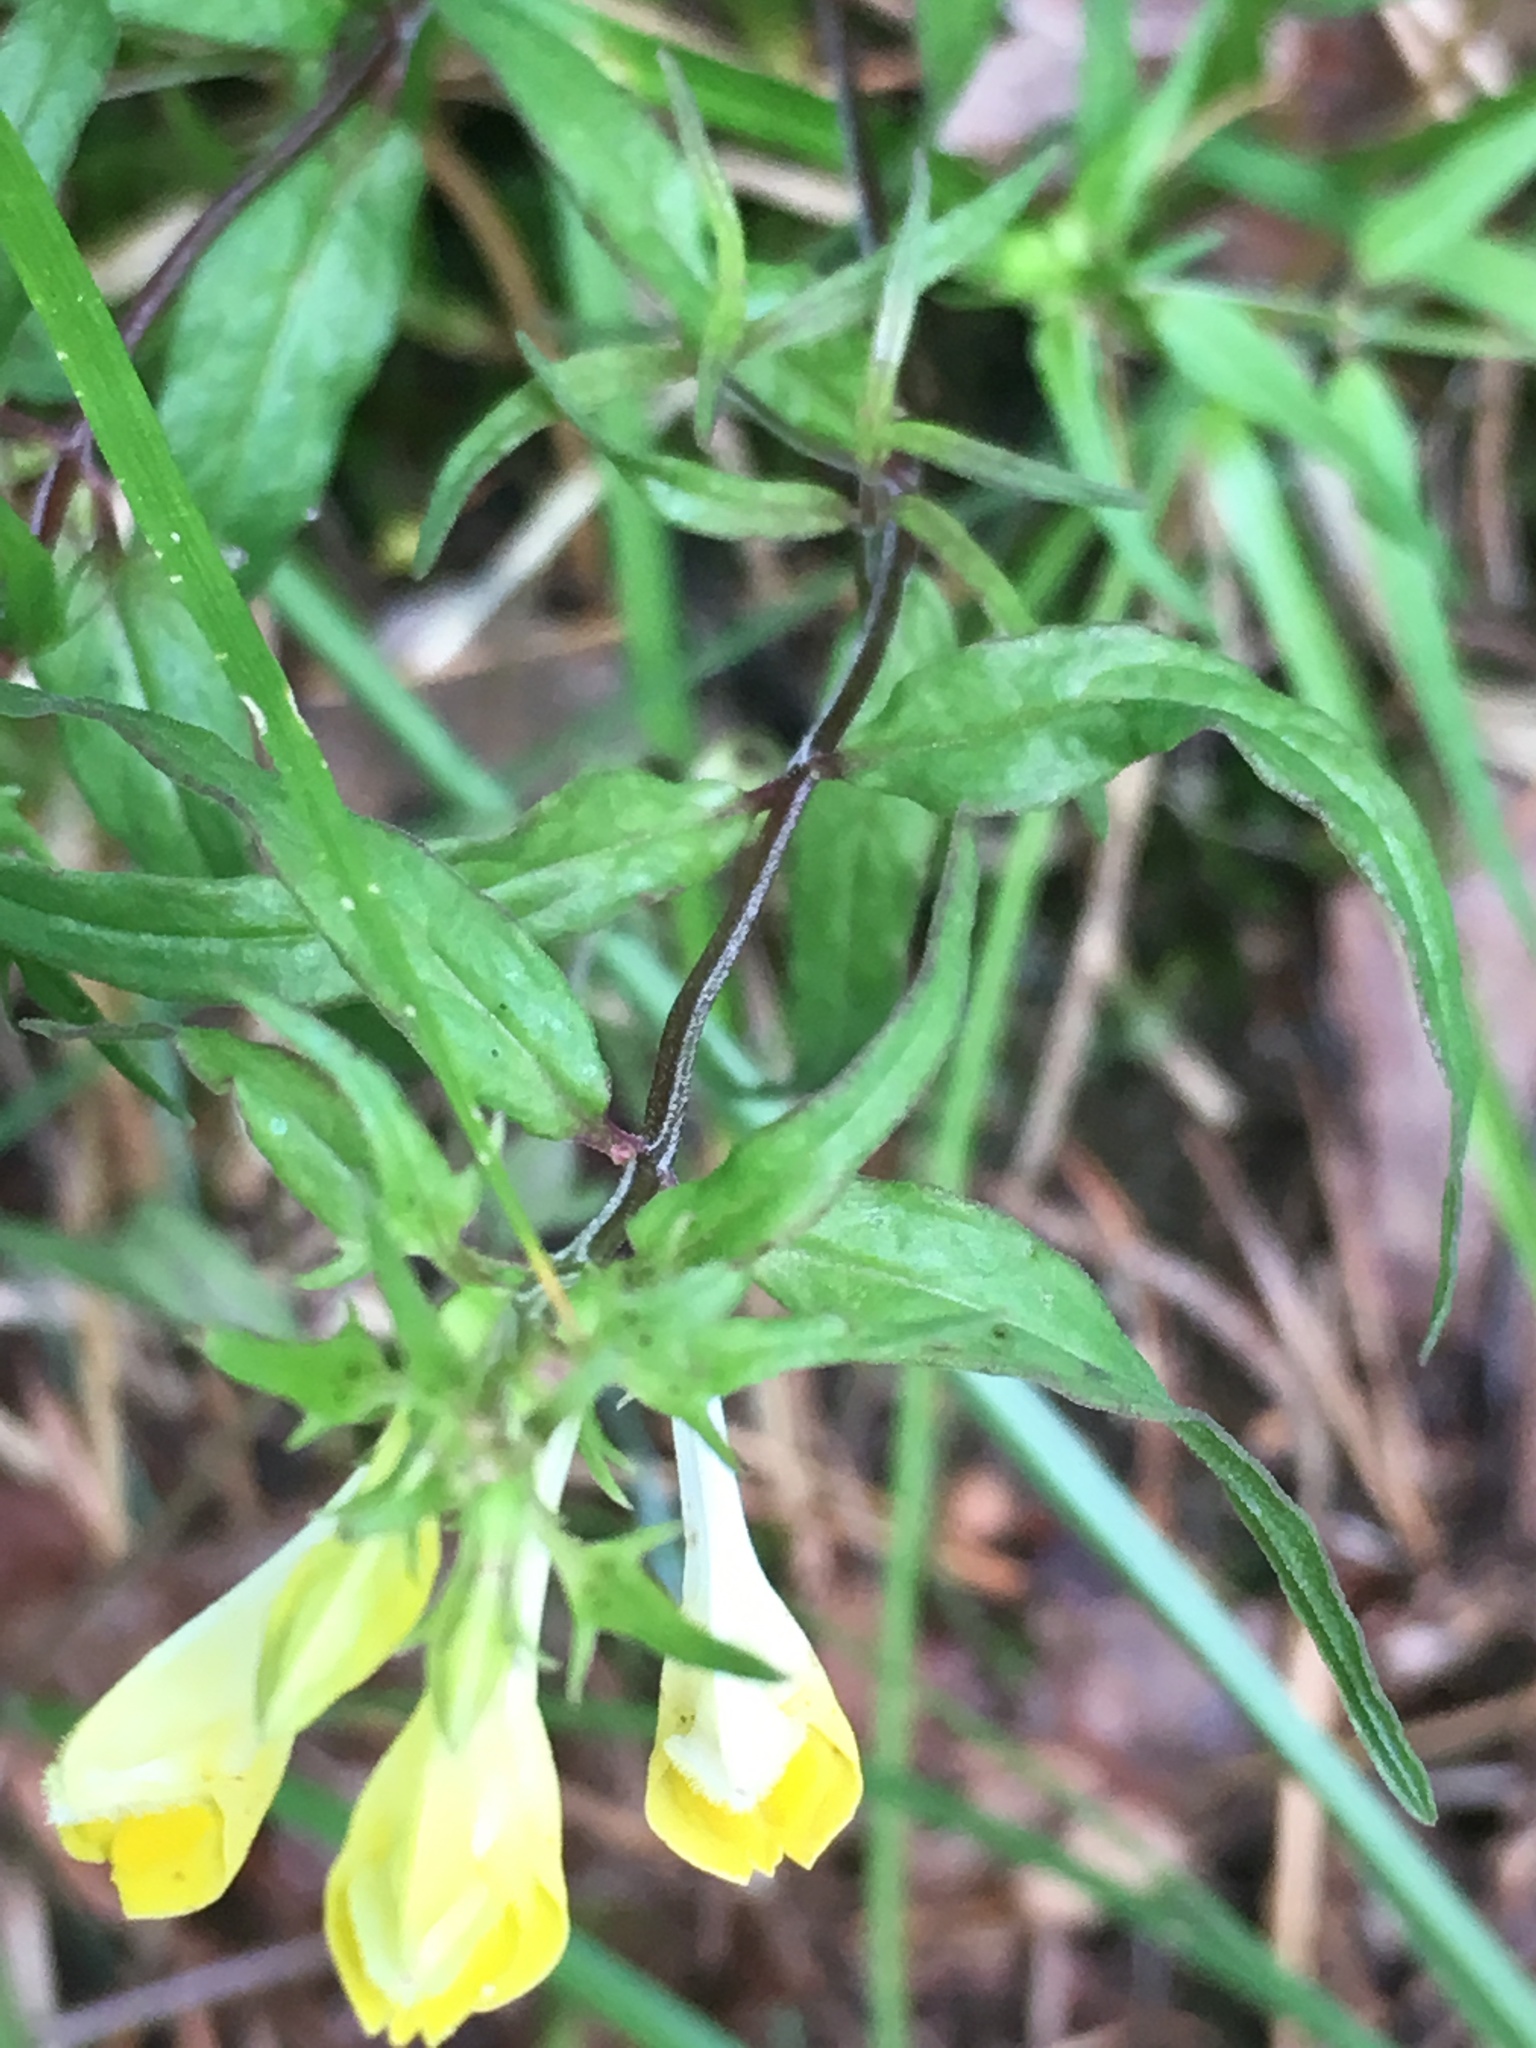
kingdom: Plantae
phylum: Tracheophyta
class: Magnoliopsida
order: Lamiales
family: Orobanchaceae
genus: Melampyrum
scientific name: Melampyrum pratense
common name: Common cow-wheat
